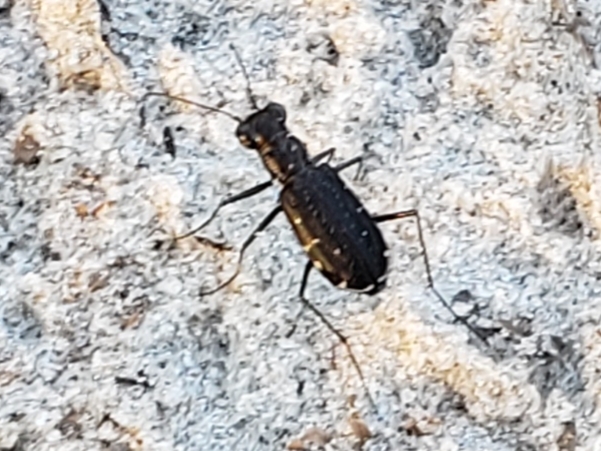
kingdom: Animalia
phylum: Arthropoda
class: Insecta
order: Coleoptera
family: Carabidae
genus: Cicindela
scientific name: Cicindela punctulata
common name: Punctured tiger beetle
